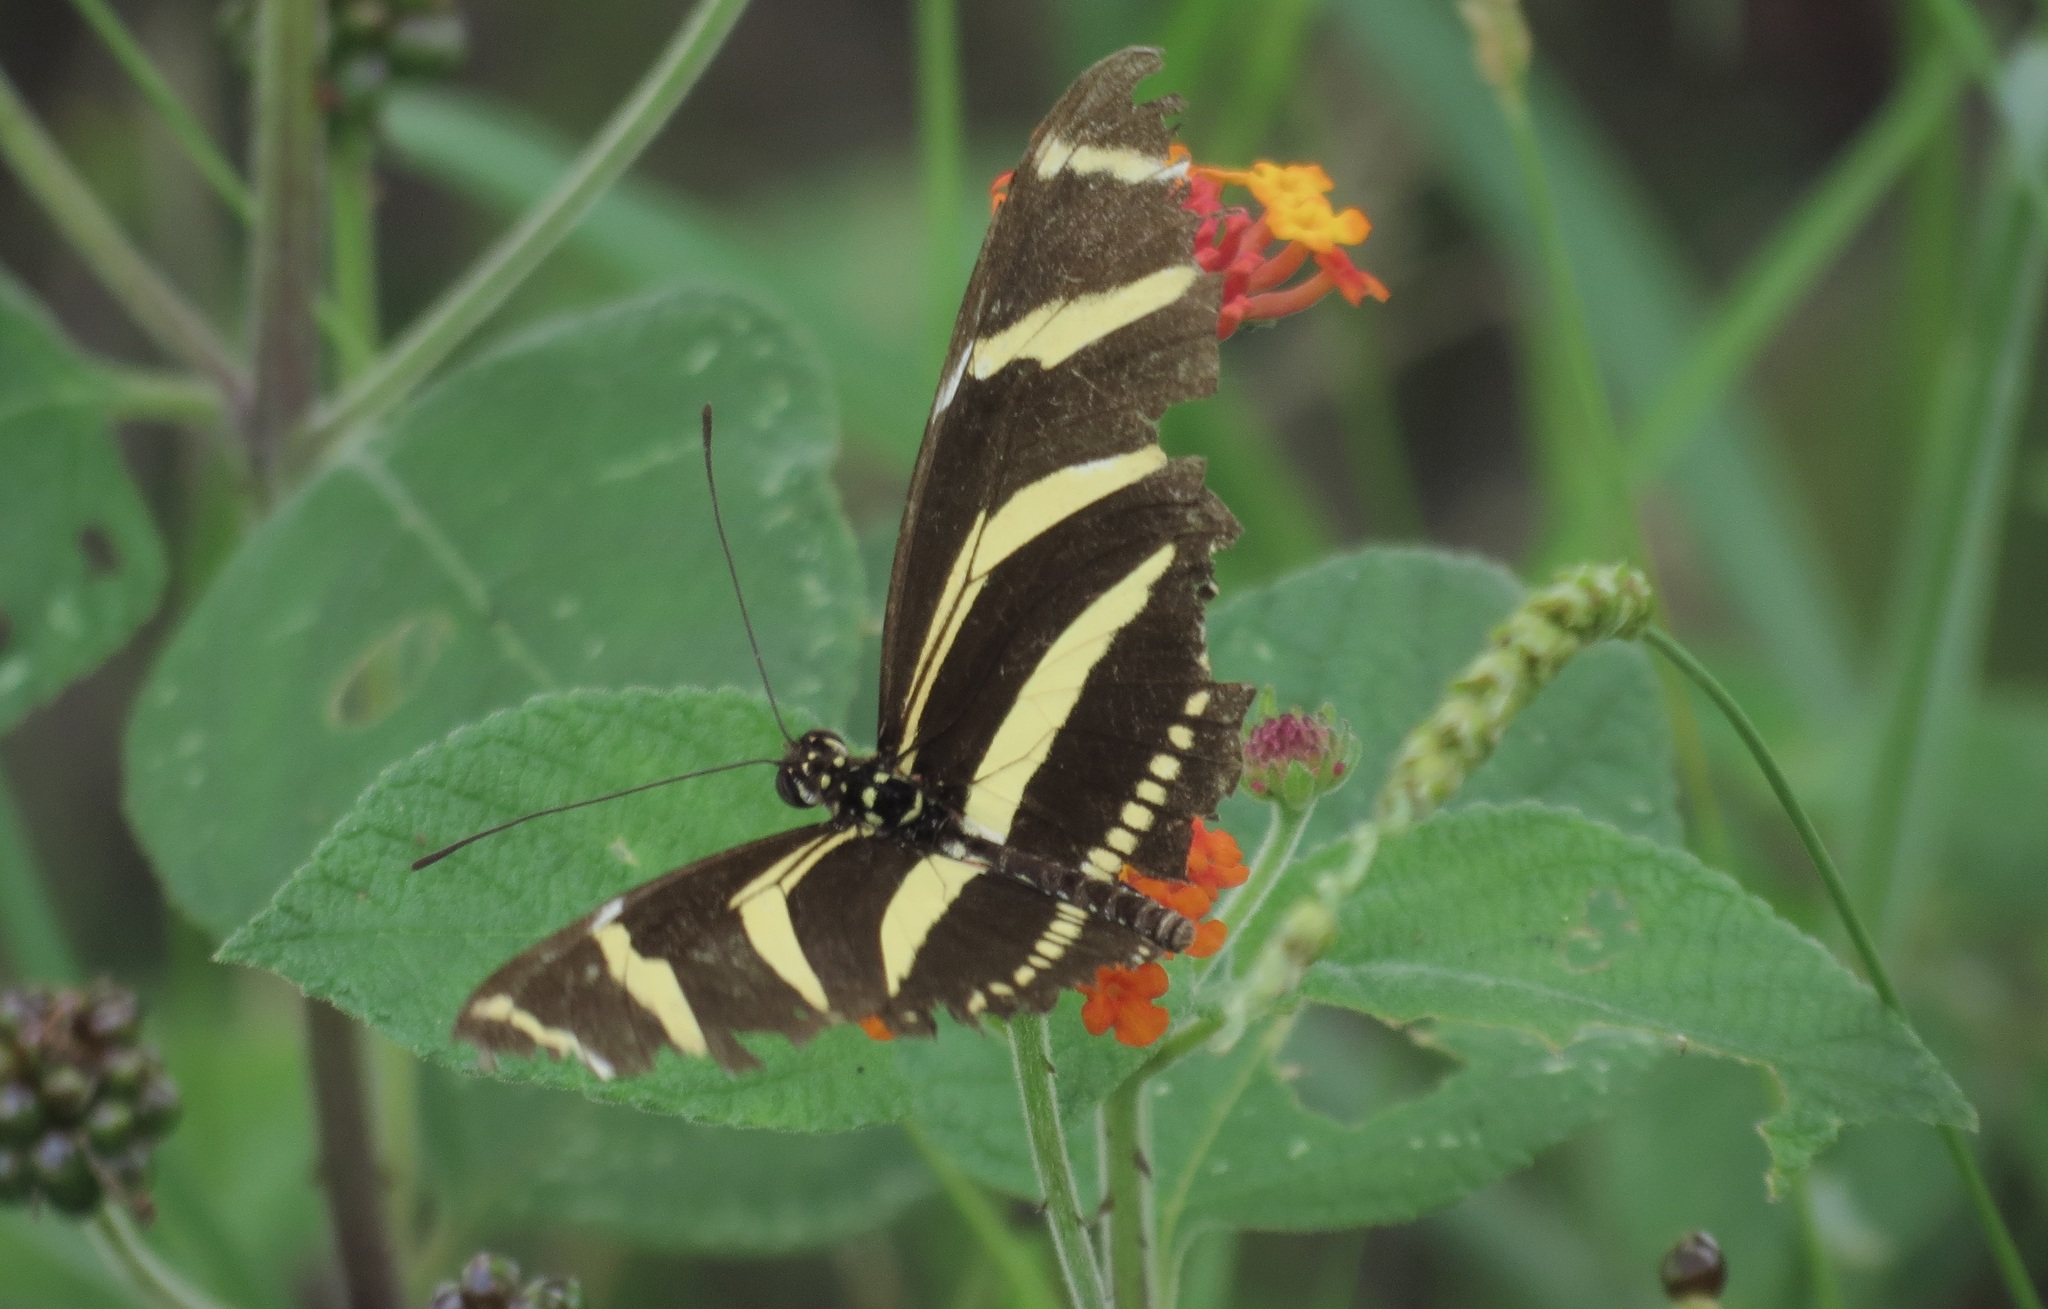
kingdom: Animalia
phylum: Arthropoda
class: Insecta
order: Lepidoptera
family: Nymphalidae
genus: Heliconius
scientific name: Heliconius charithonia
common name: Zebra long wing
